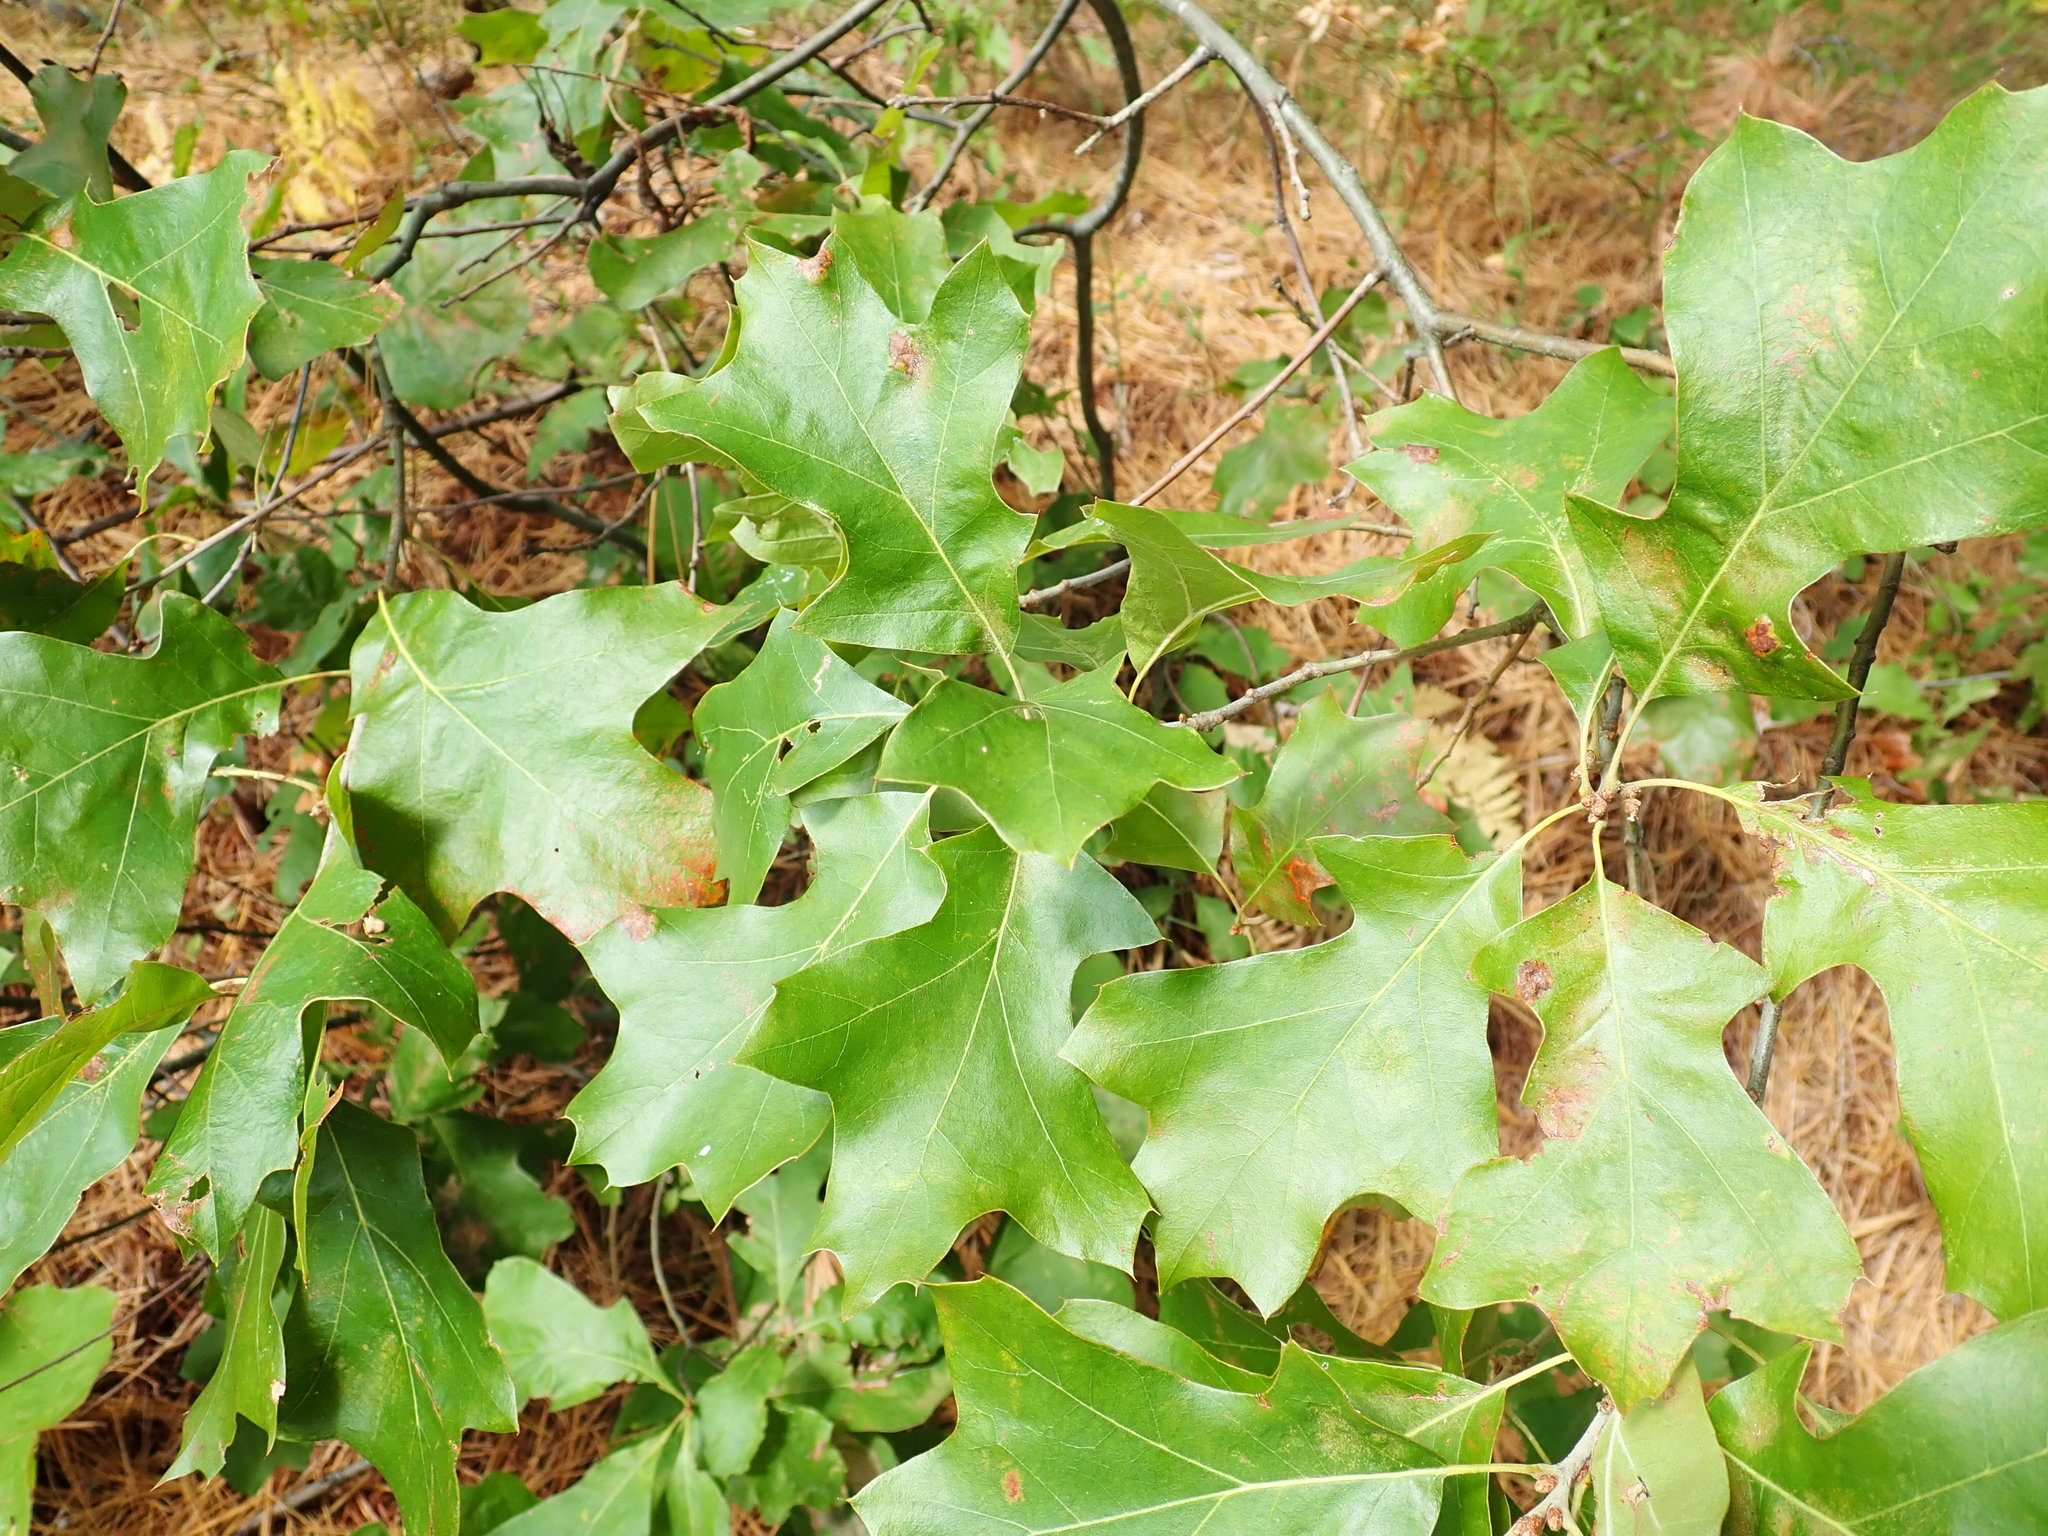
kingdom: Plantae
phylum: Tracheophyta
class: Magnoliopsida
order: Fagales
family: Fagaceae
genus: Quercus
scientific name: Quercus ilicifolia
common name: Bear oak
